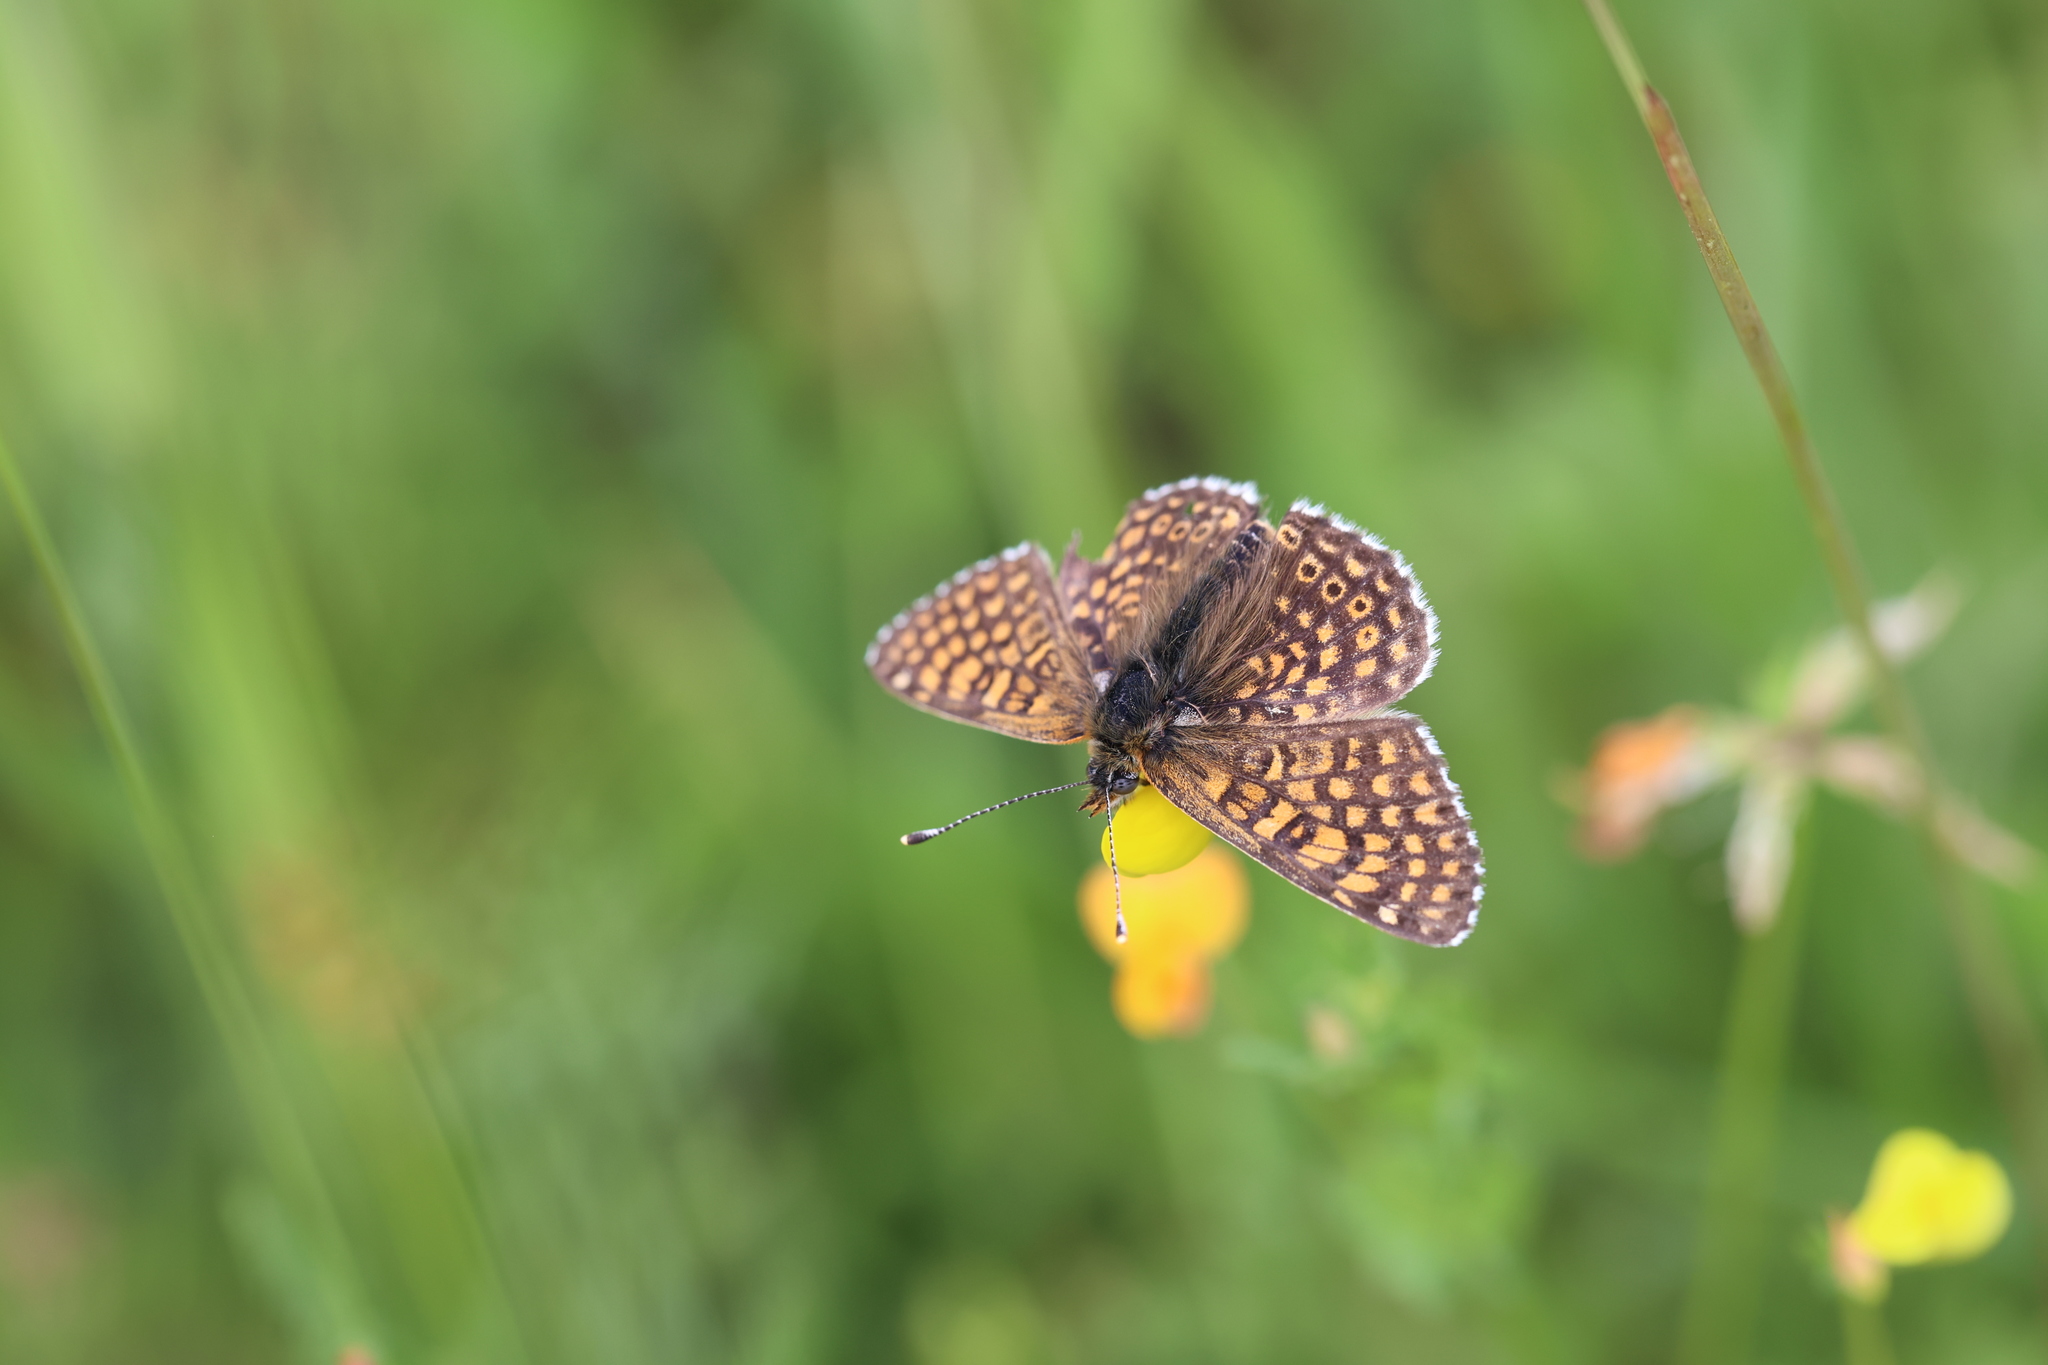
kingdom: Animalia
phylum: Arthropoda
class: Insecta
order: Lepidoptera
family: Nymphalidae
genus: Melitaea
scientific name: Melitaea cinxia
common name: Glanville fritillary
